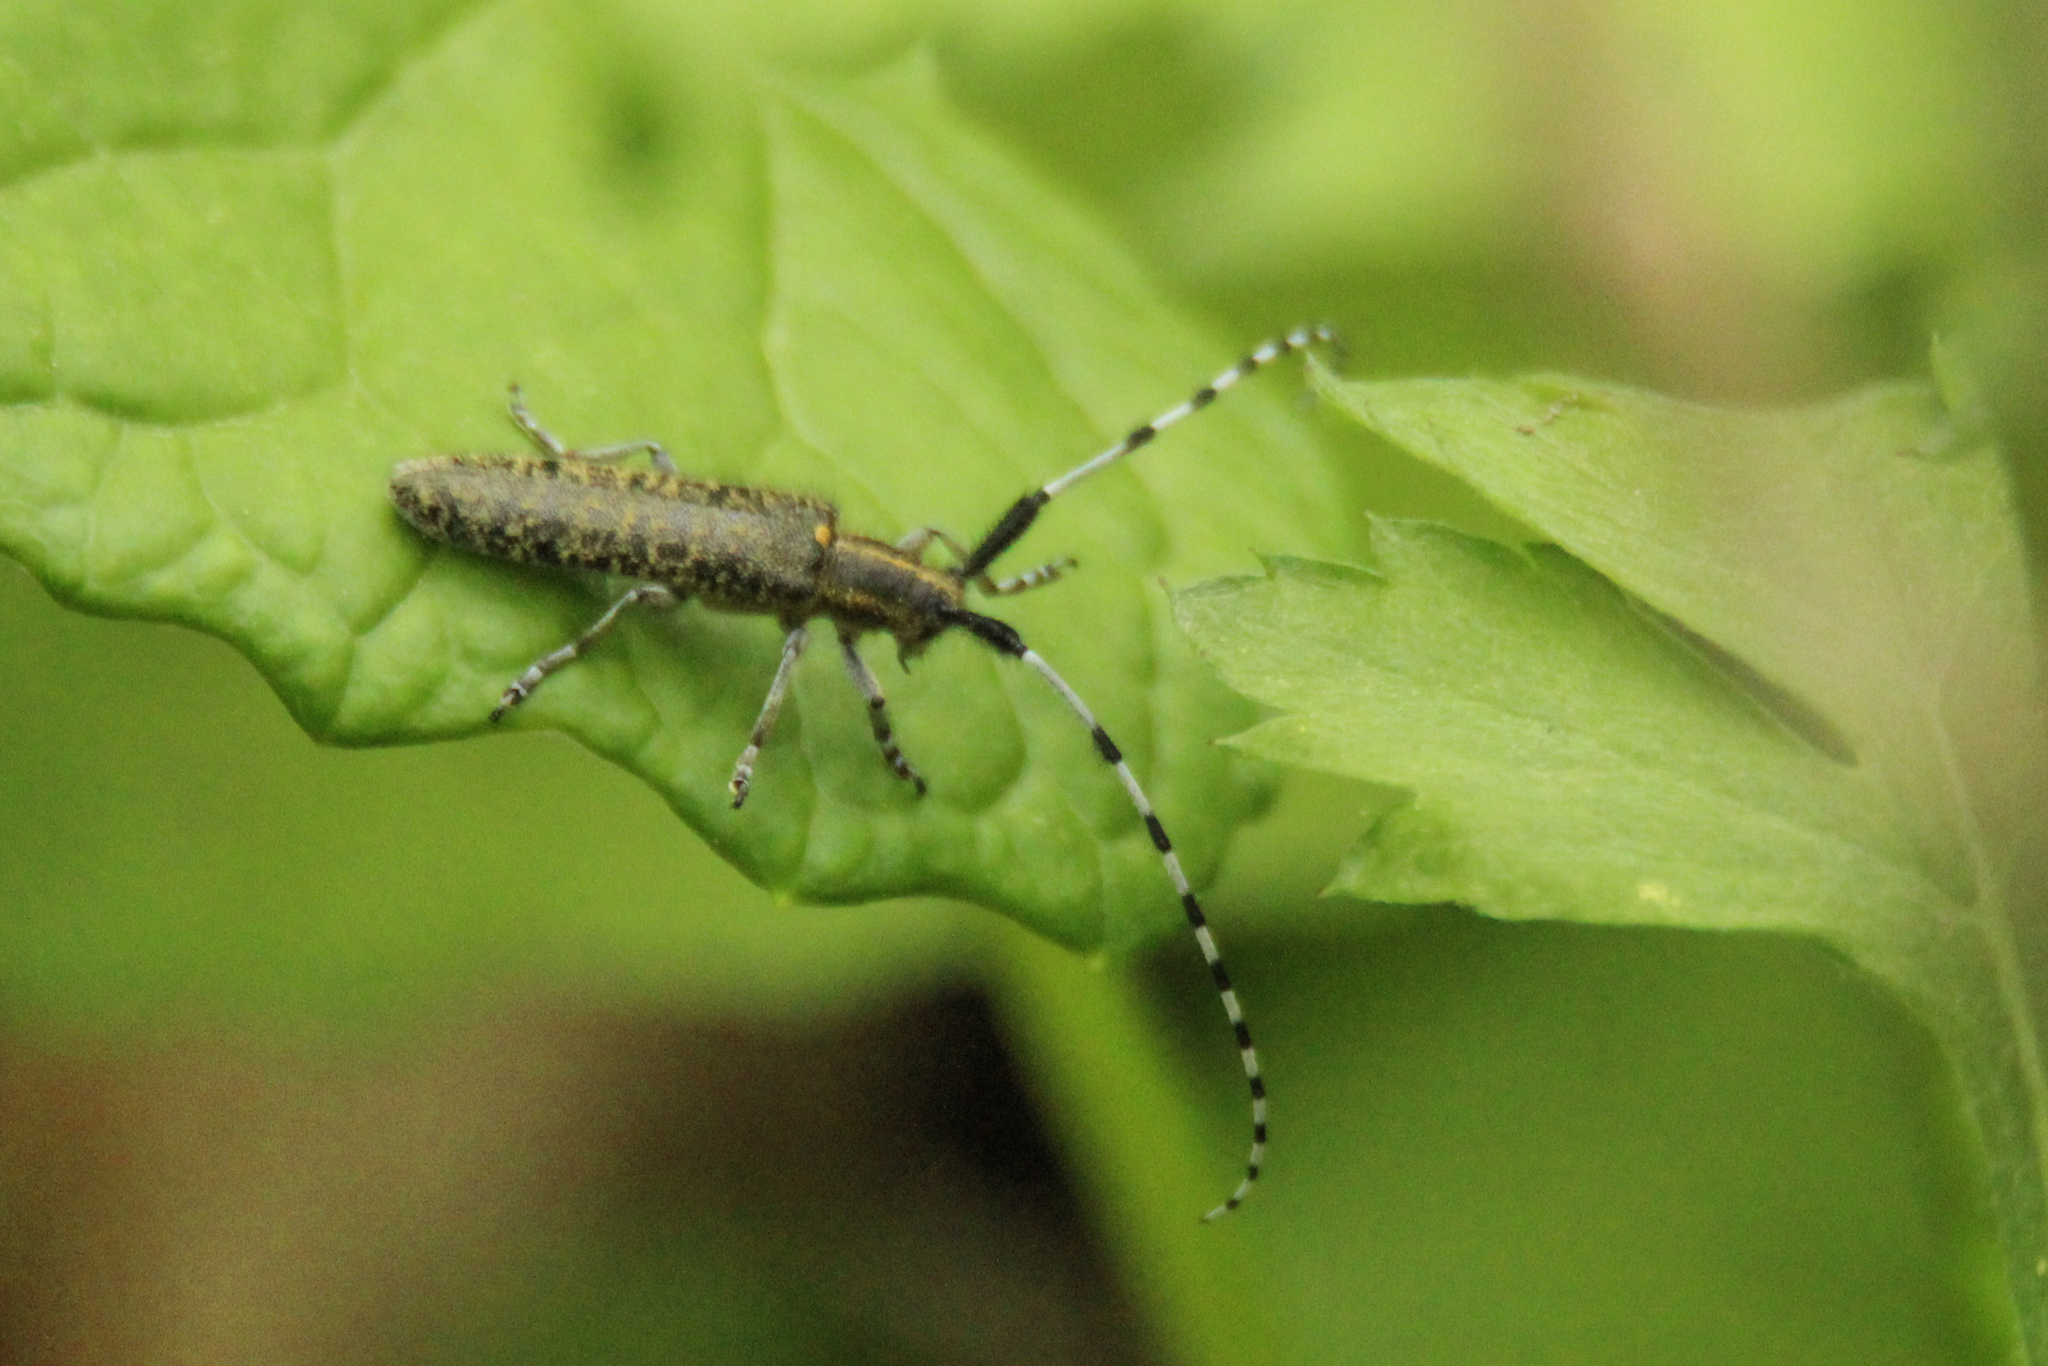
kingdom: Animalia
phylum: Arthropoda
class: Insecta
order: Coleoptera
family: Cerambycidae
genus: Agapanthia
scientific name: Agapanthia daurica
